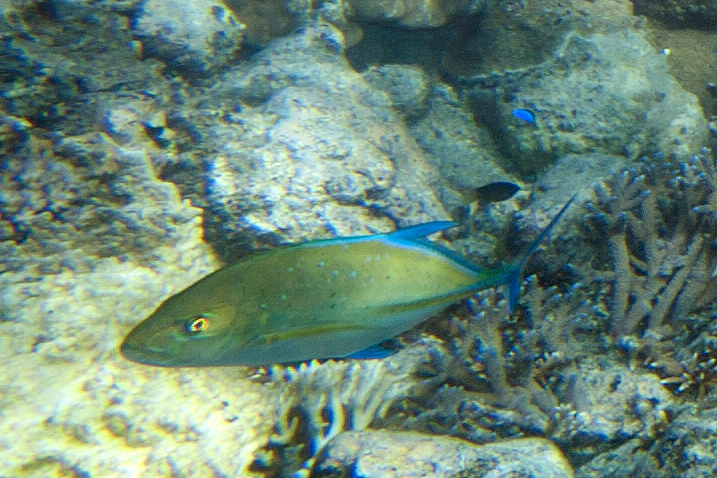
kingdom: Animalia
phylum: Chordata
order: Perciformes
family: Carangidae
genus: Caranx
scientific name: Caranx melampygus
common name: Bluefin trevally
